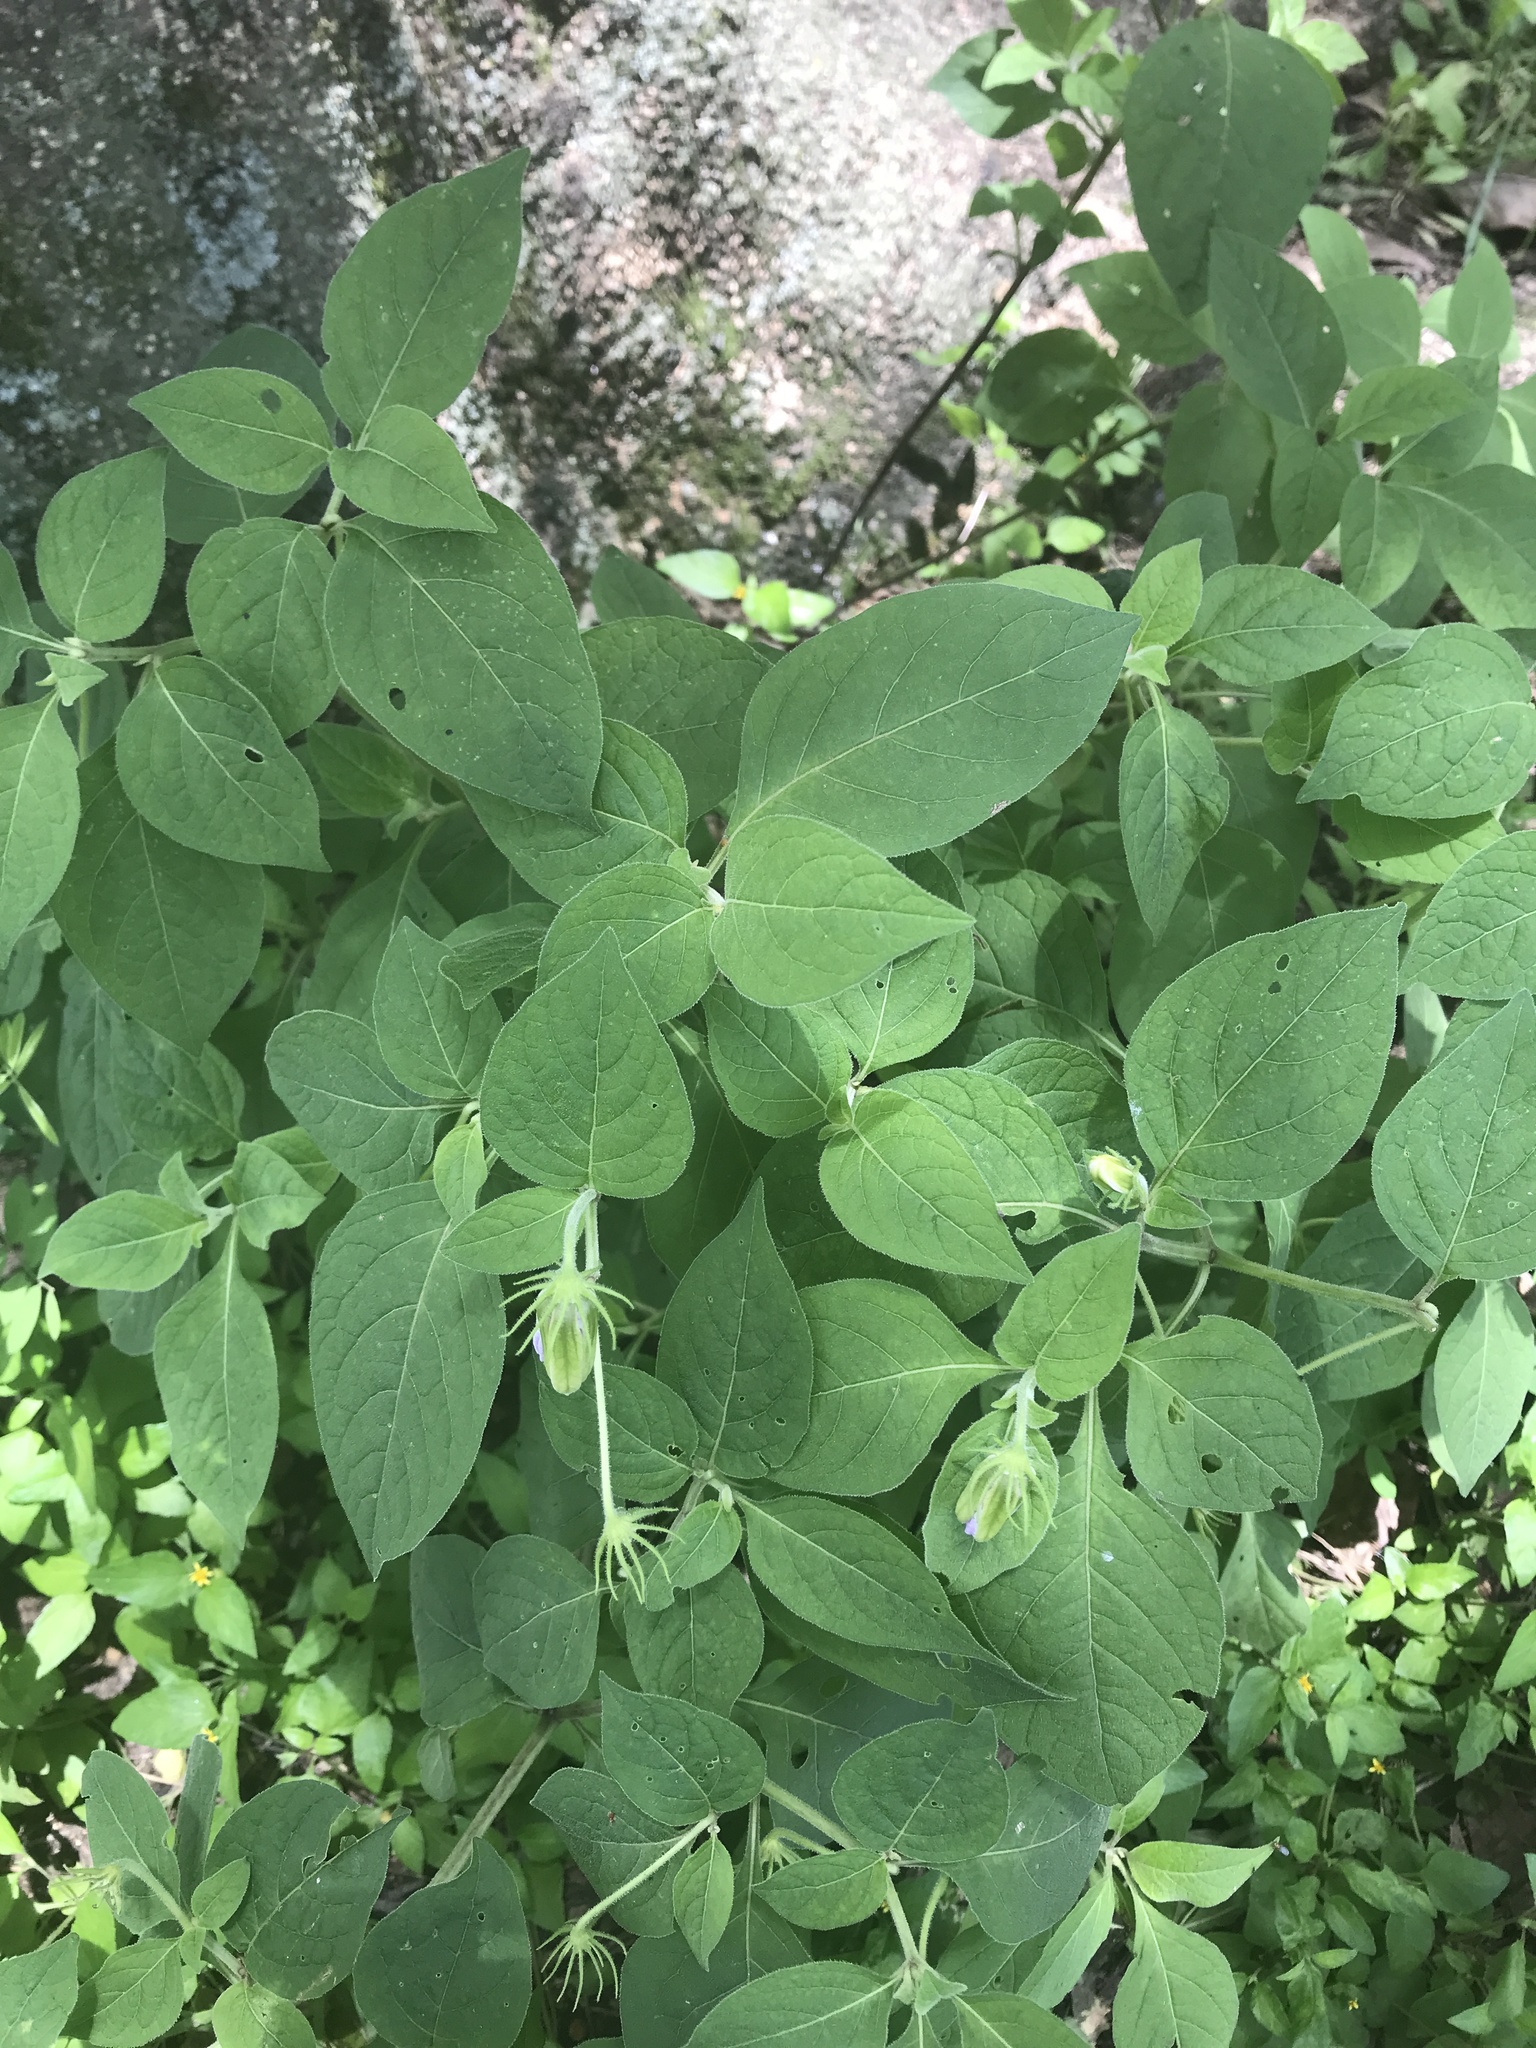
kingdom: Plantae
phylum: Tracheophyta
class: Magnoliopsida
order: Solanales
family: Solanaceae
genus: Lycianthes
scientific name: Lycianthes moziniana
